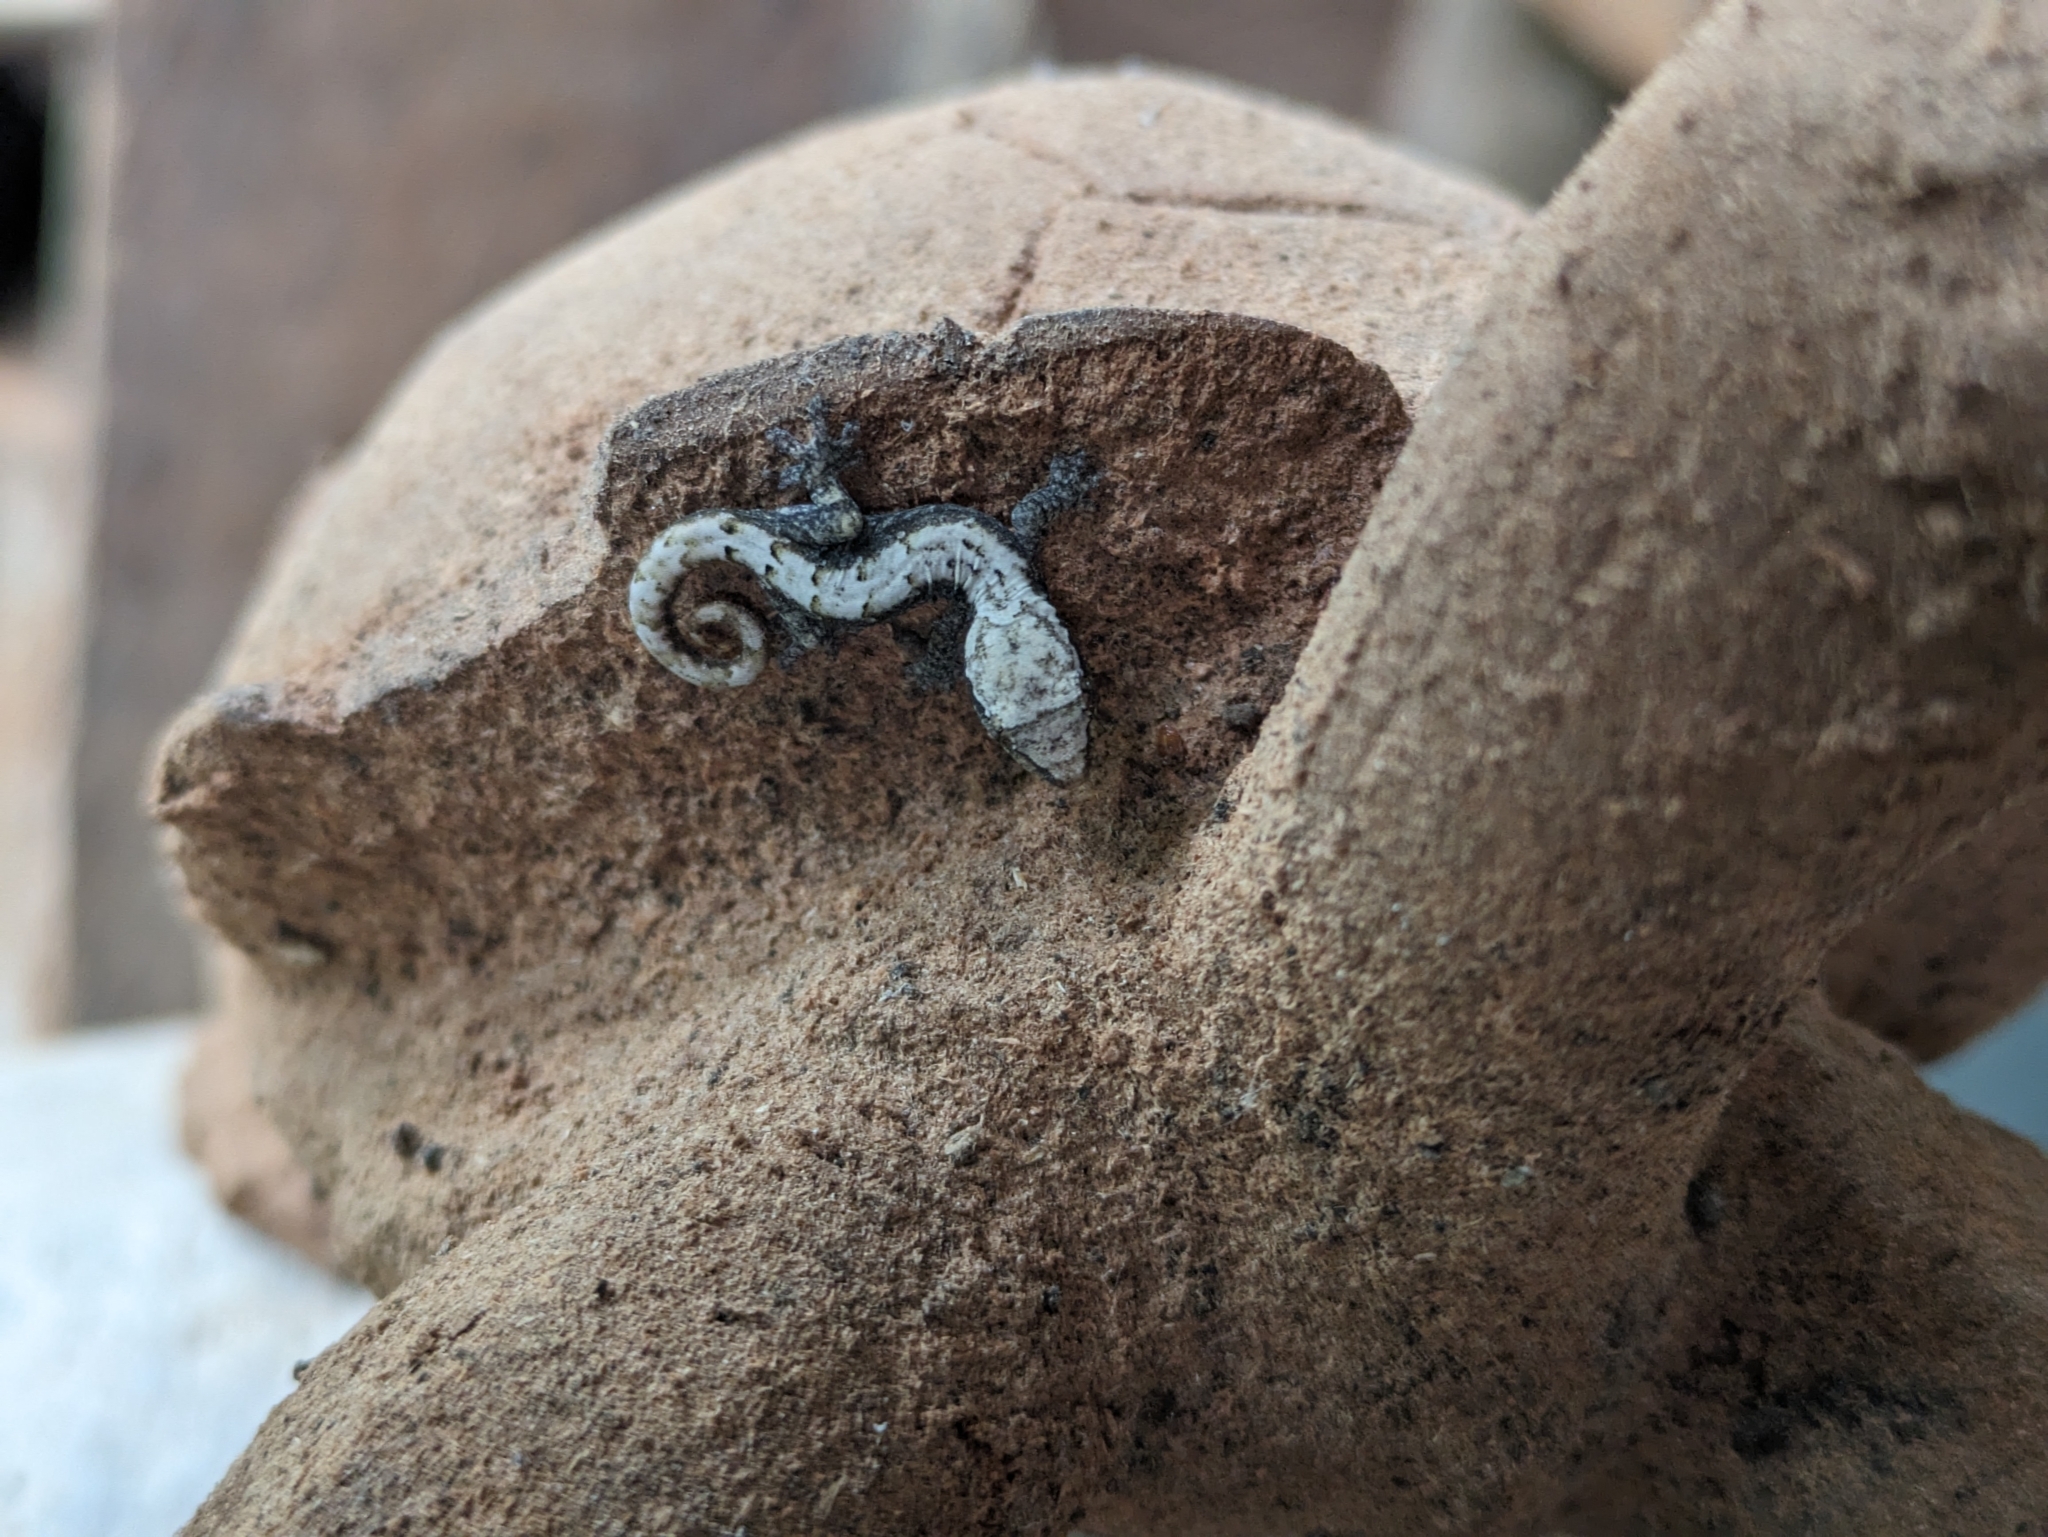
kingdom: Animalia
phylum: Chordata
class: Squamata
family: Gekkonidae
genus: Lepidodactylus
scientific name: Lepidodactylus lugubris
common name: Mourning gecko
